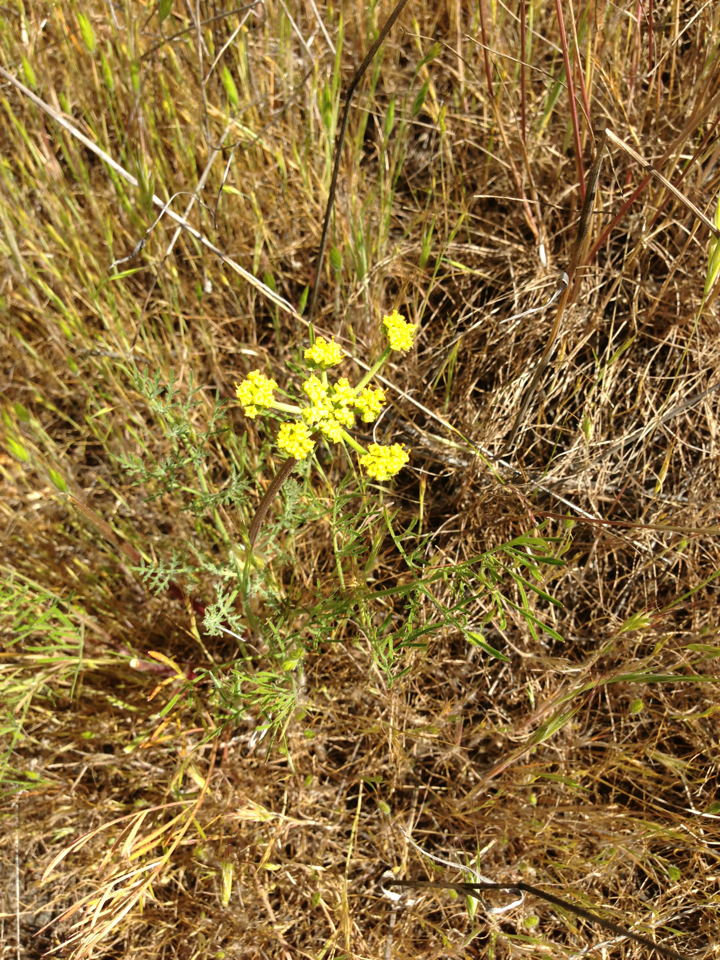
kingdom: Plantae
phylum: Tracheophyta
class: Magnoliopsida
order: Apiales
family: Apiaceae
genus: Lomatium
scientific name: Lomatium utriculatum
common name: Fine-leaf desert-parsley
